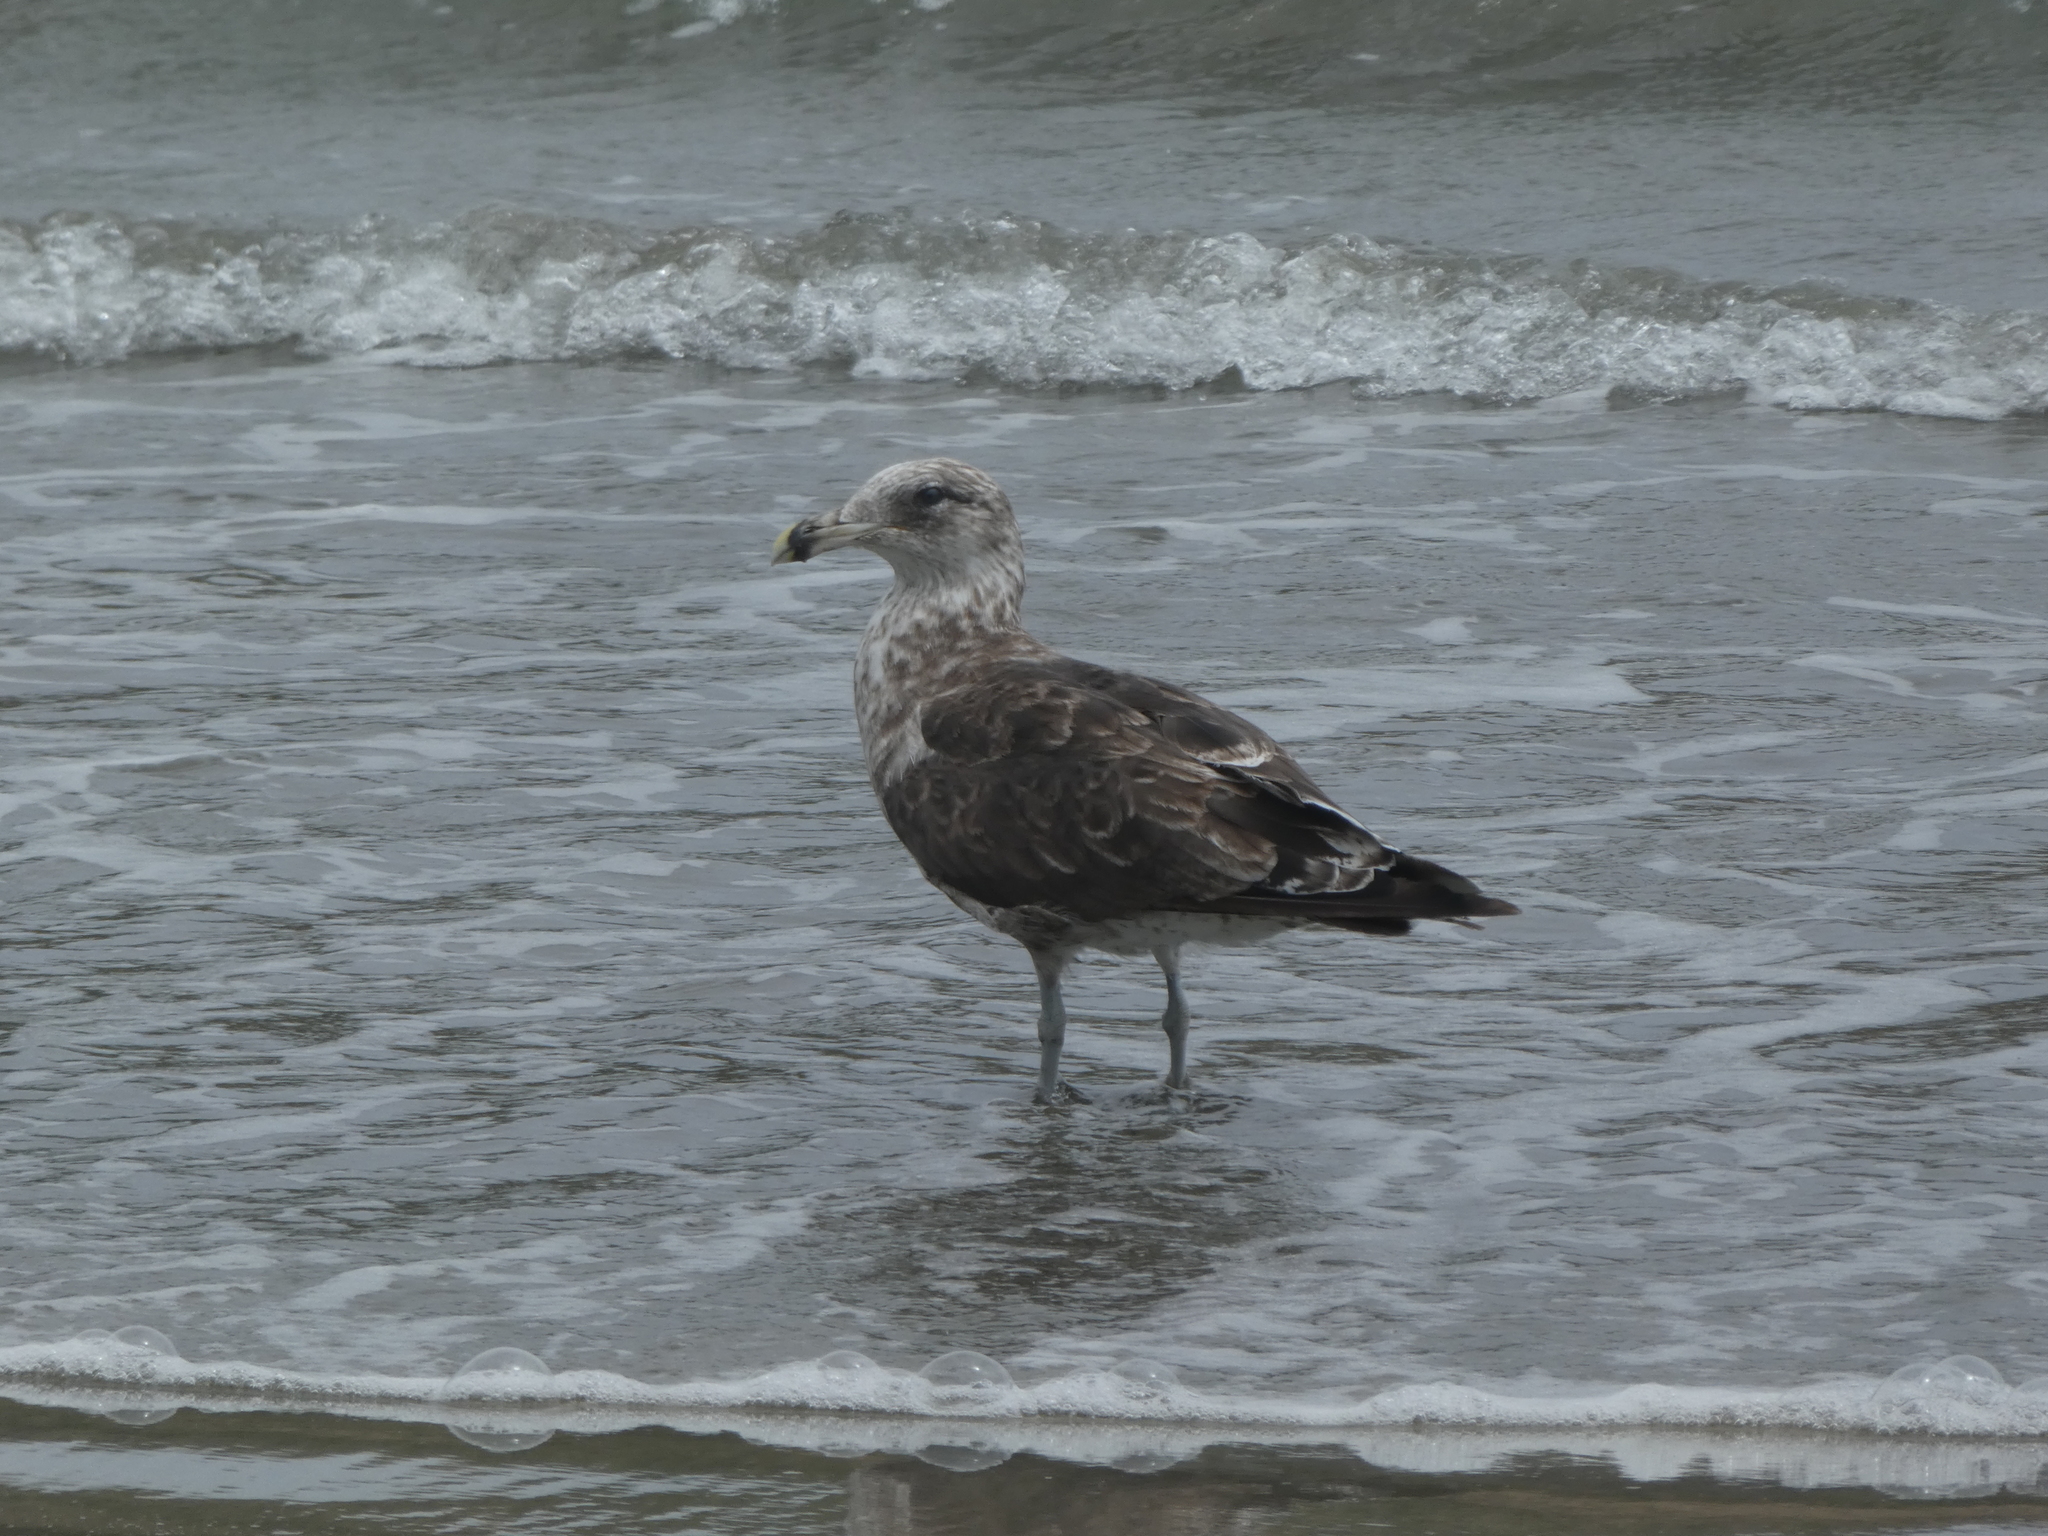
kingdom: Animalia
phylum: Chordata
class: Aves
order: Charadriiformes
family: Laridae
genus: Larus
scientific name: Larus dominicanus
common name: Kelp gull
